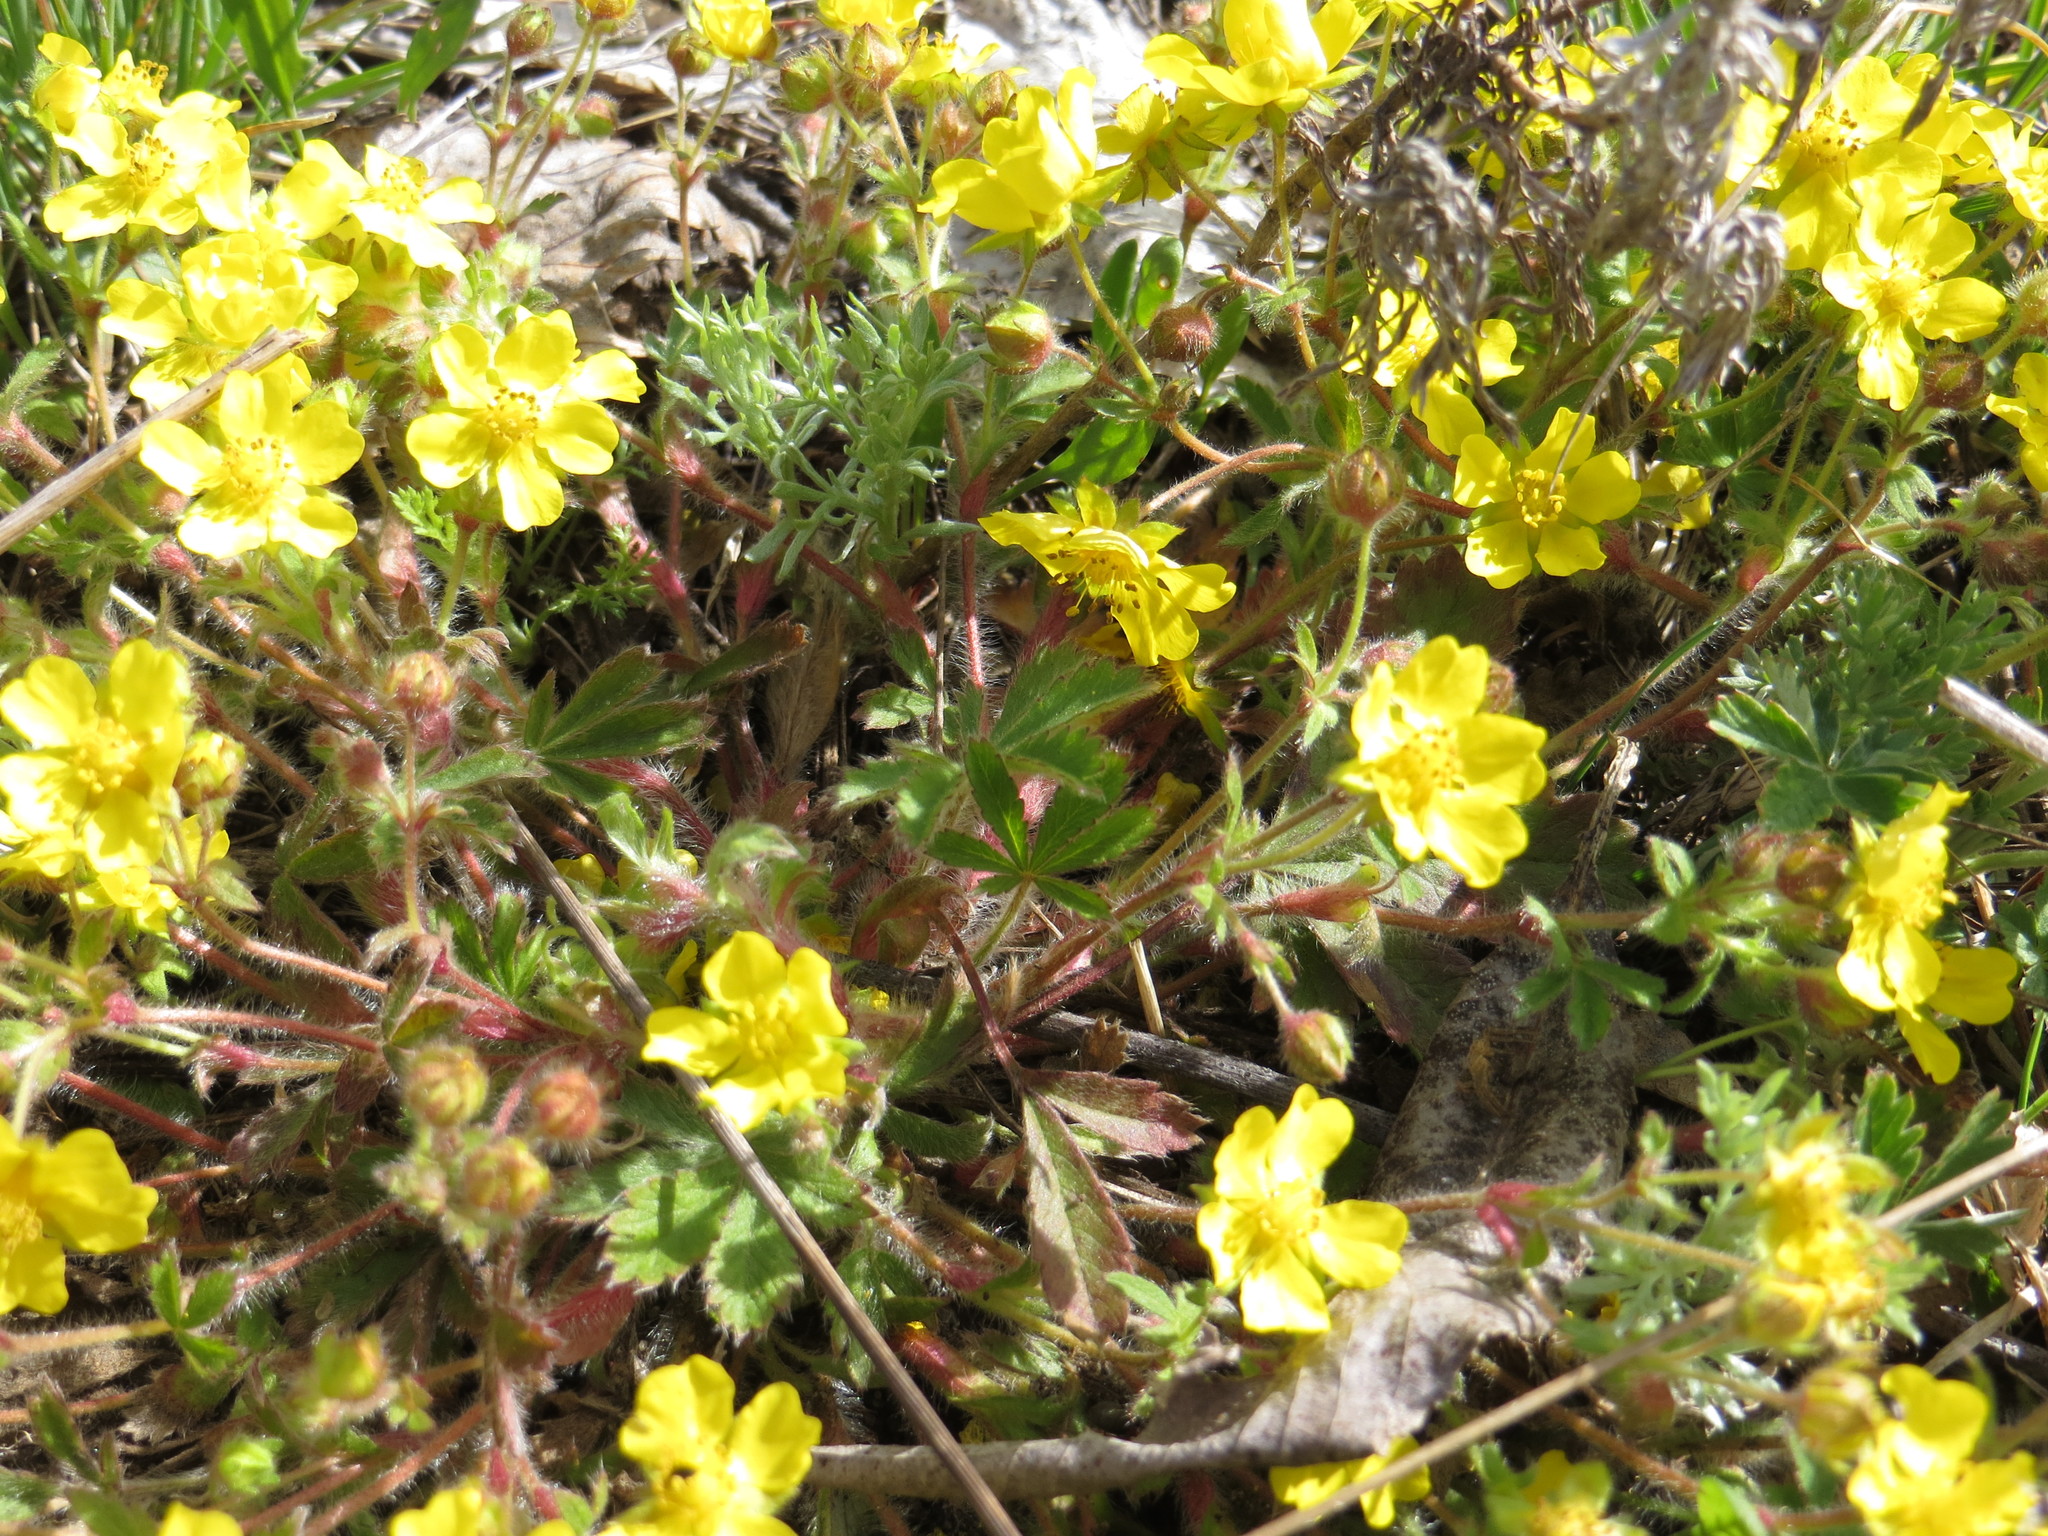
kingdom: Plantae
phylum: Tracheophyta
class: Magnoliopsida
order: Rosales
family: Rosaceae
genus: Potentilla
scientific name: Potentilla humifusa
